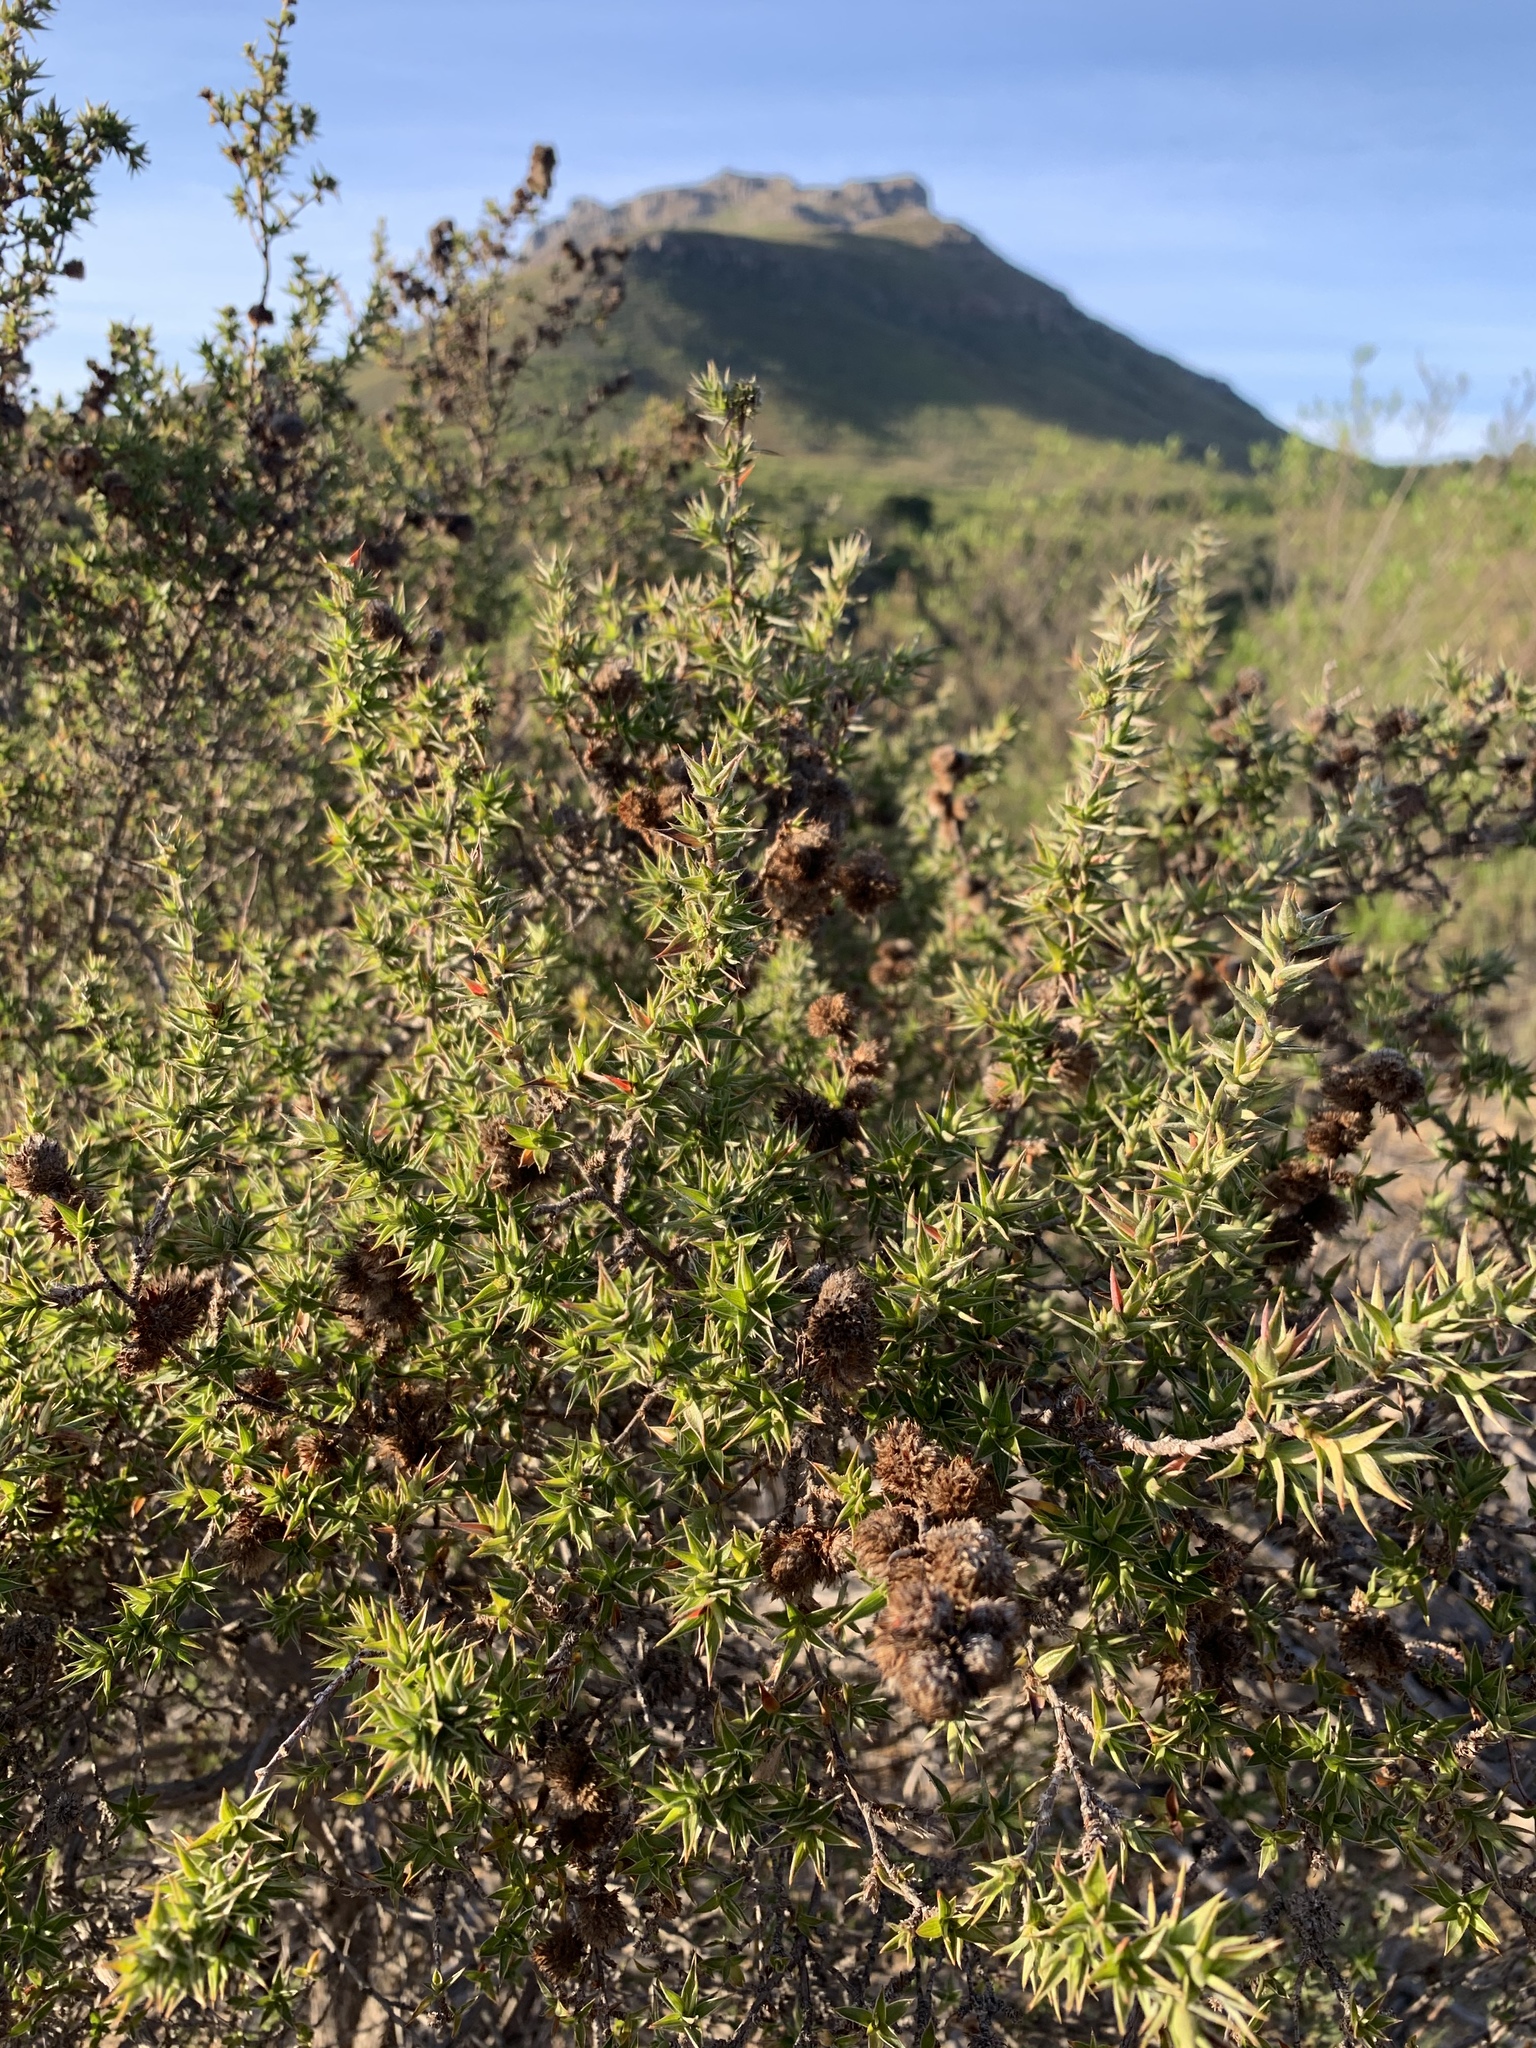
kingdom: Plantae
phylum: Tracheophyta
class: Magnoliopsida
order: Rosales
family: Rosaceae
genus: Cliffortia
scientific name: Cliffortia ruscifolia
